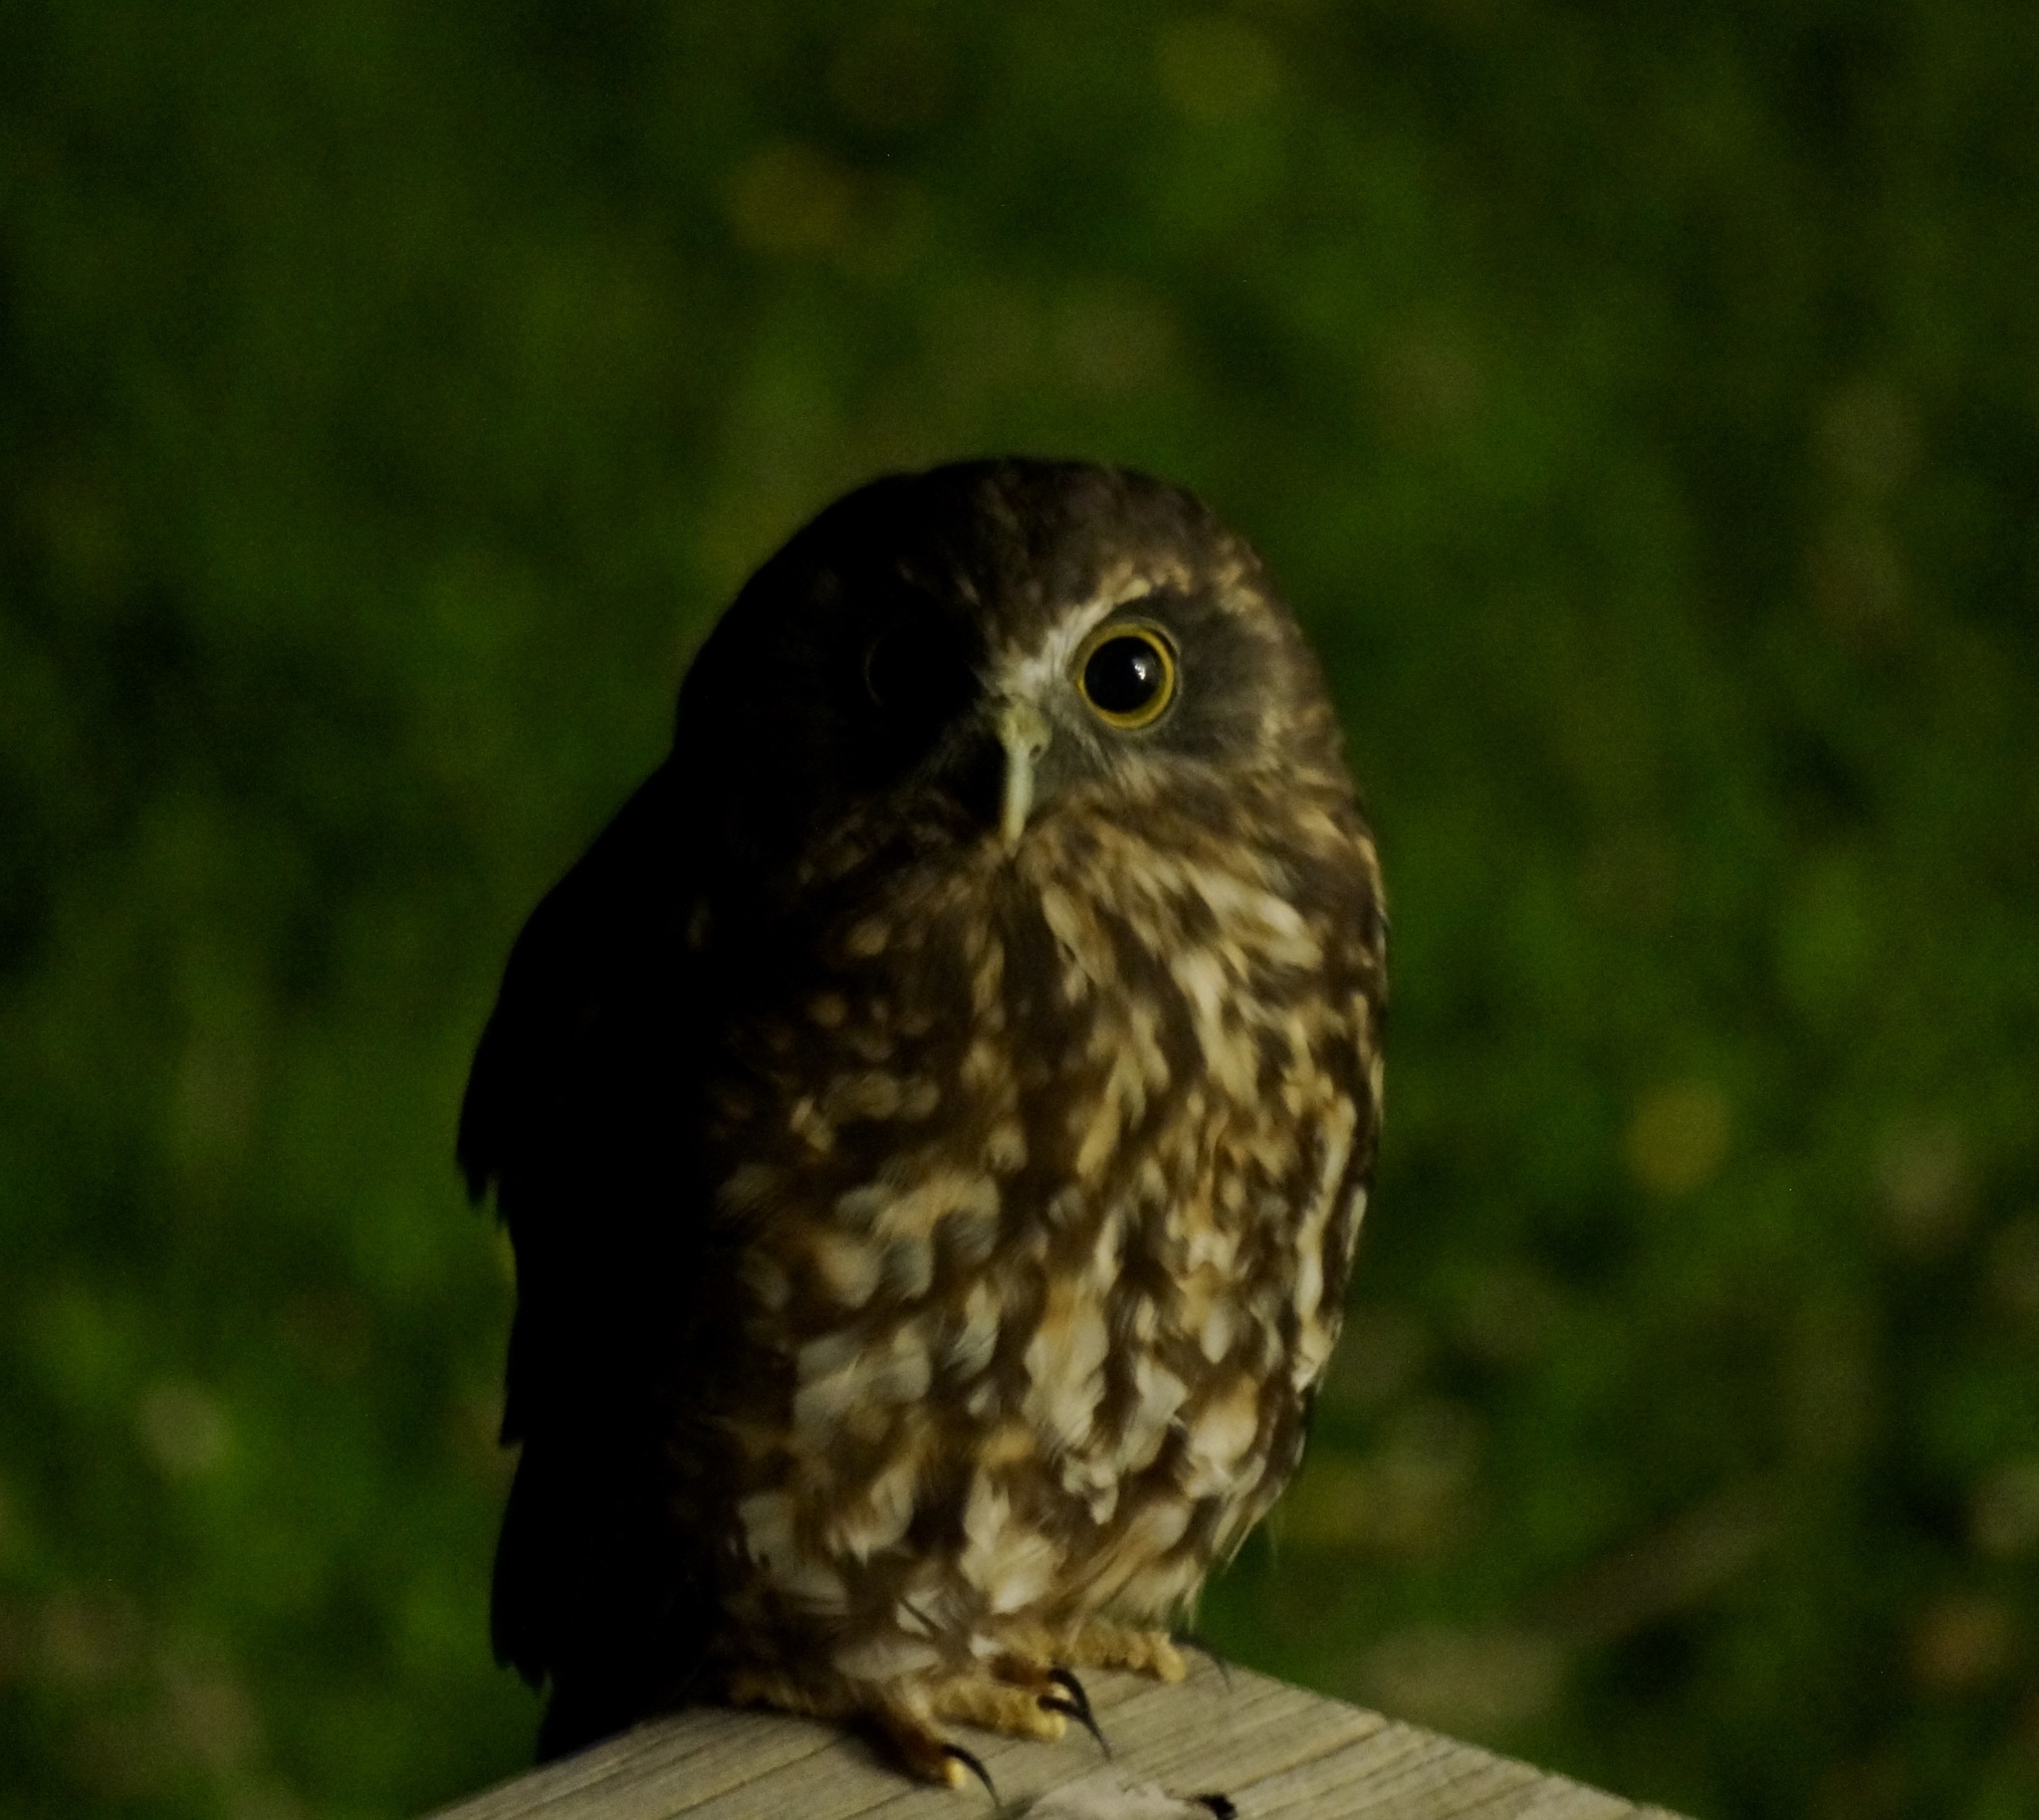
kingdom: Animalia
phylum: Chordata
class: Aves
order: Strigiformes
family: Strigidae
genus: Ninox
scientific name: Ninox novaeseelandiae
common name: Morepork
